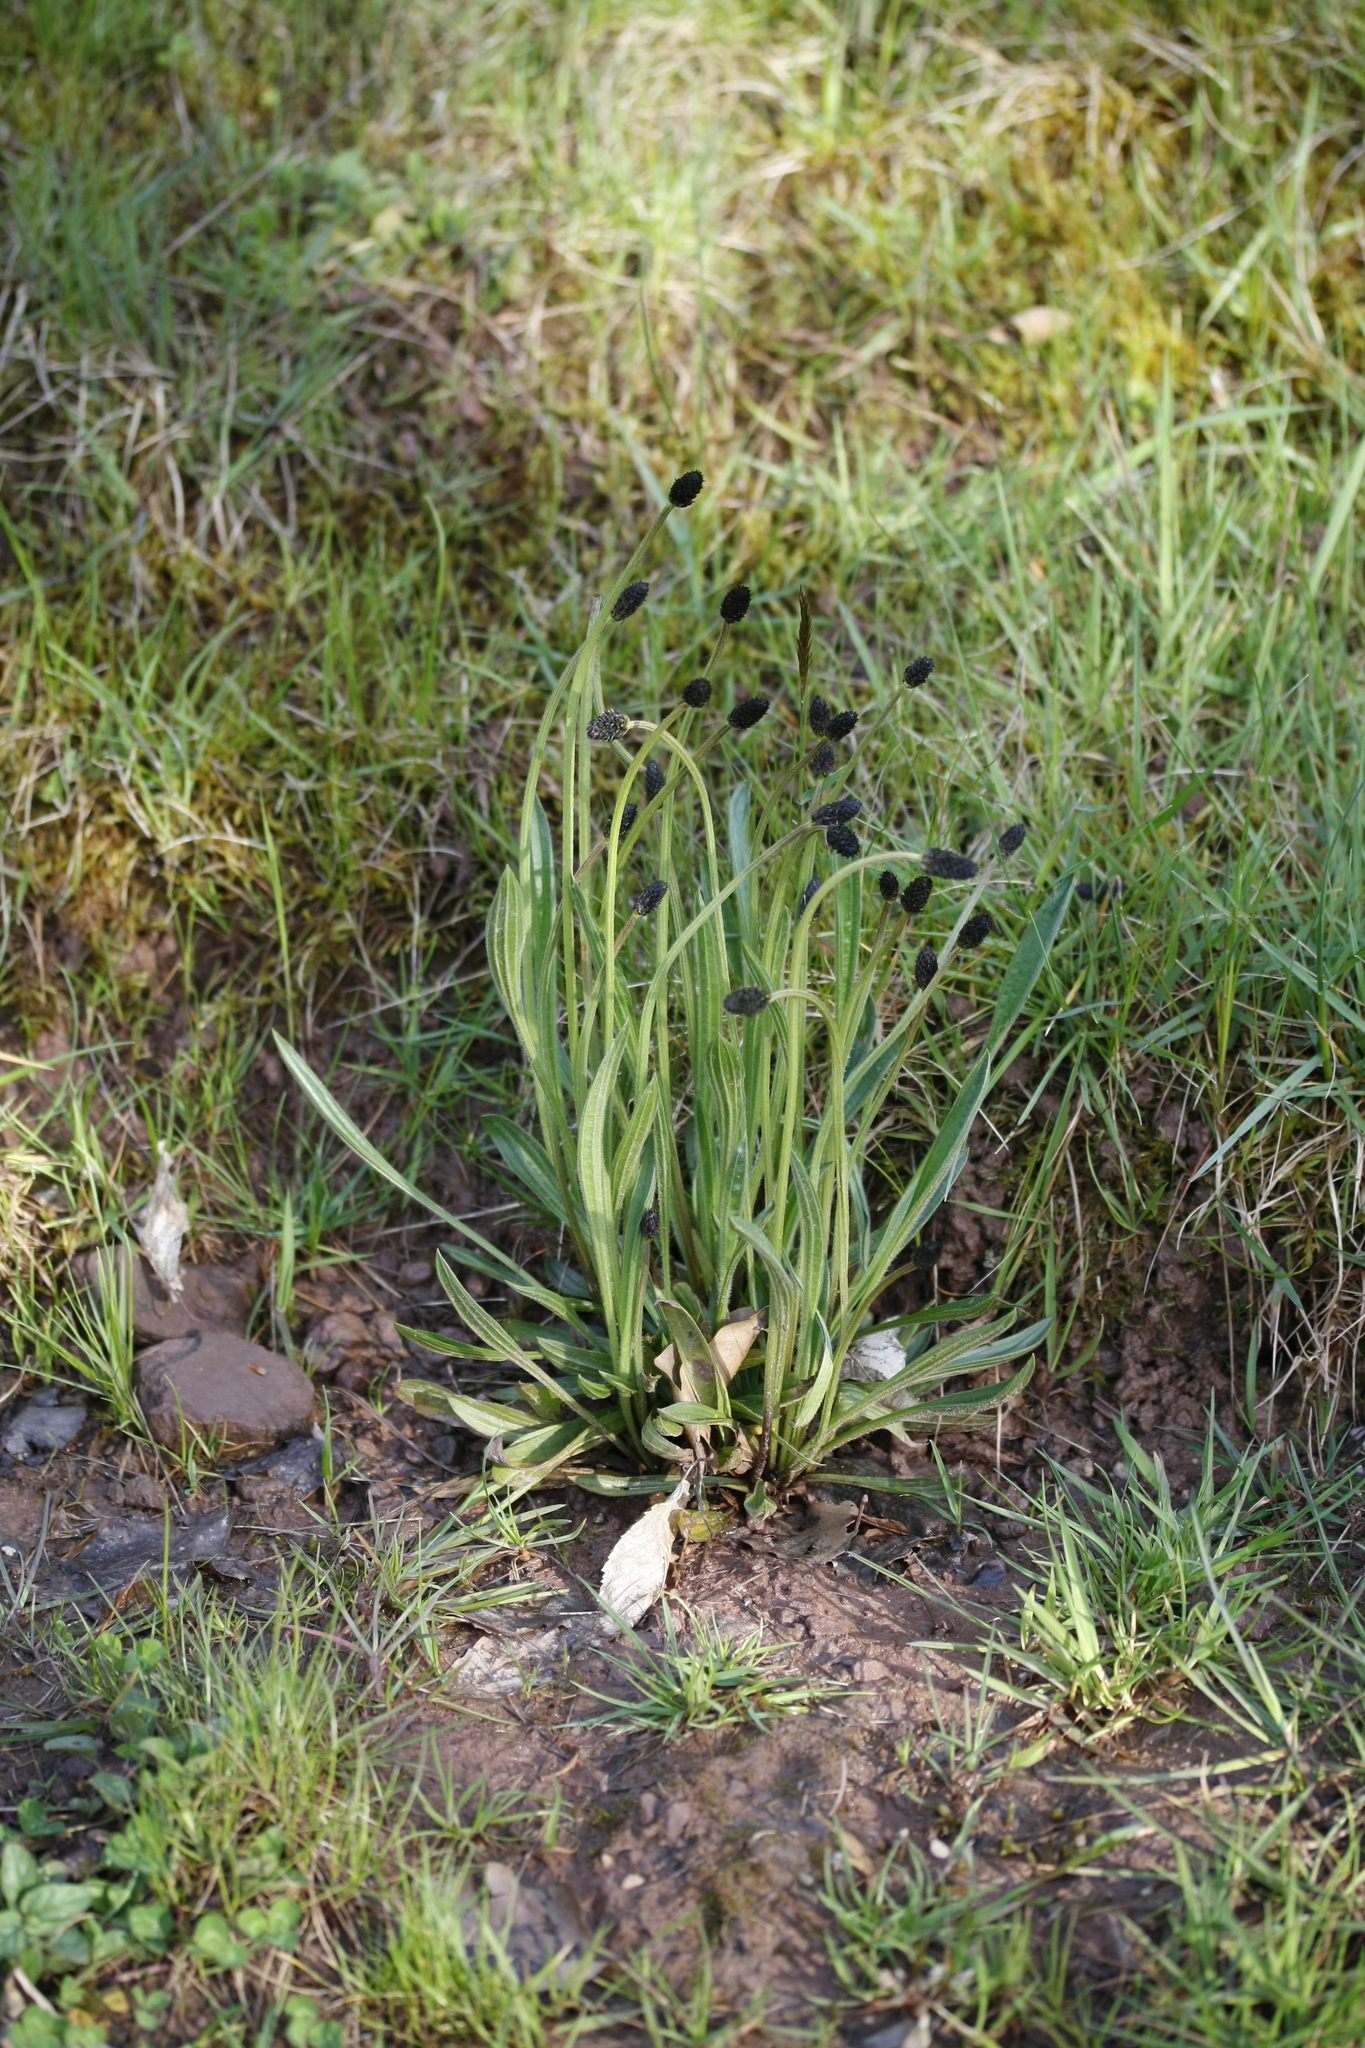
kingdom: Plantae
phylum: Tracheophyta
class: Magnoliopsida
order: Lamiales
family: Plantaginaceae
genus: Plantago
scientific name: Plantago lanceolata
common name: Ribwort plantain
